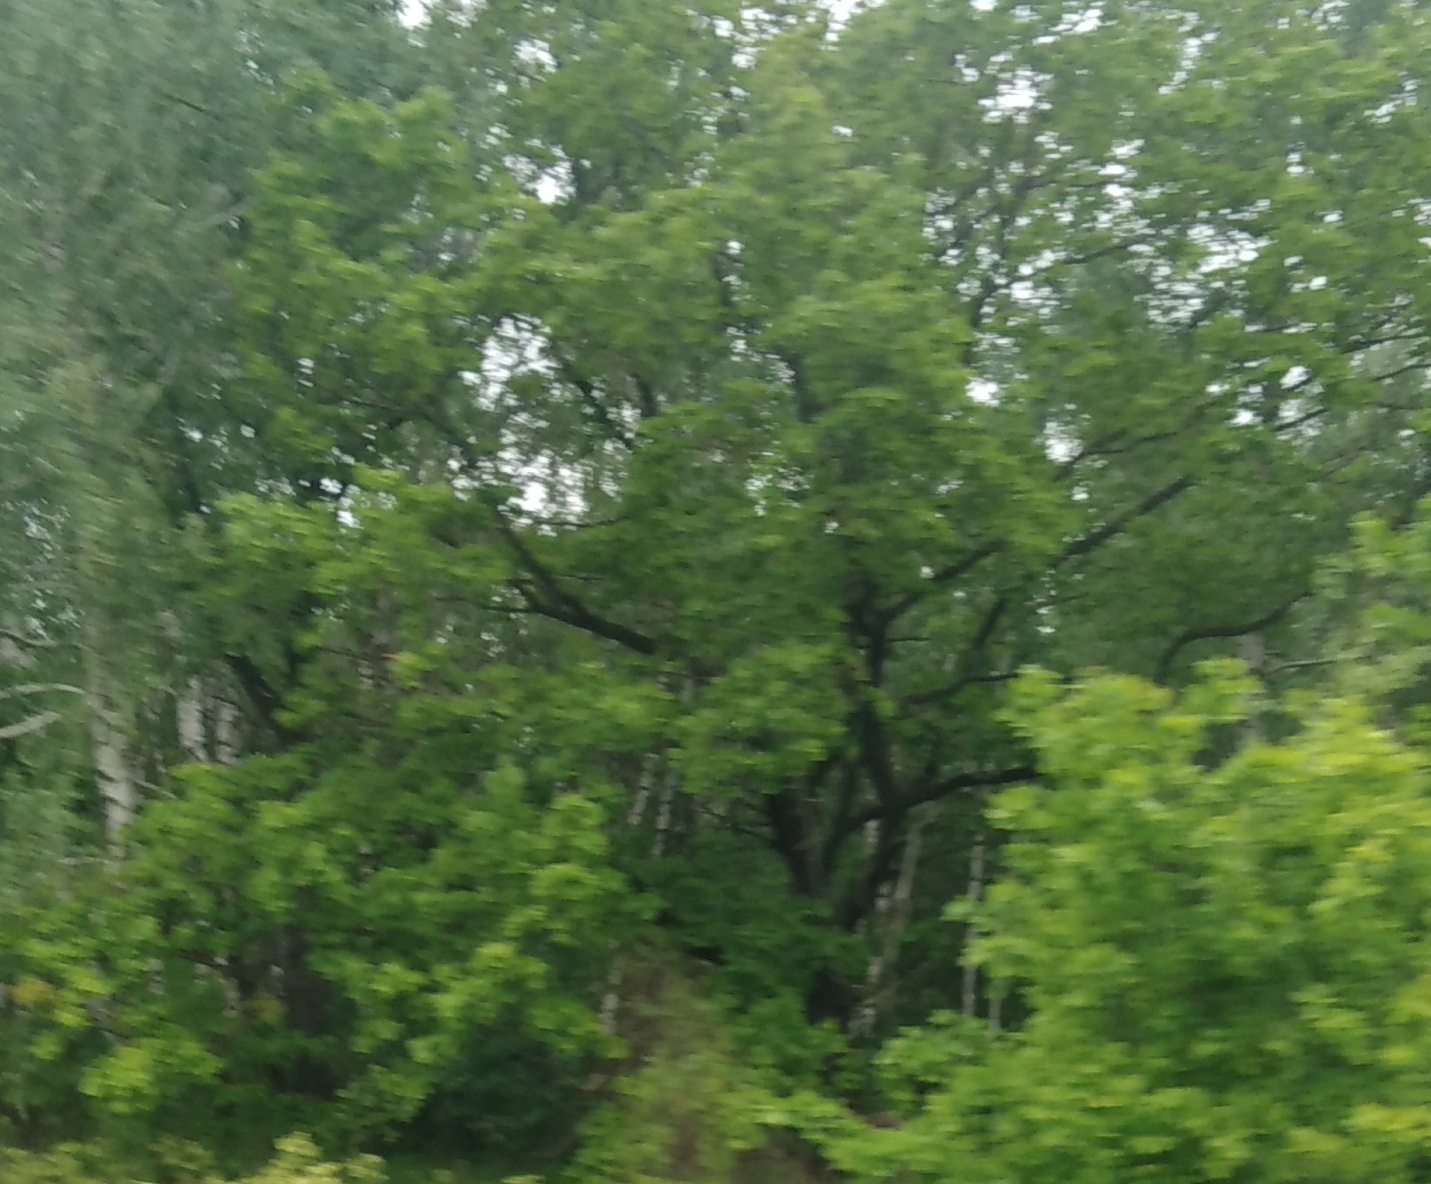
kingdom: Plantae
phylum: Tracheophyta
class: Magnoliopsida
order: Fagales
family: Fagaceae
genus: Quercus
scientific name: Quercus robur
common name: Pedunculate oak
